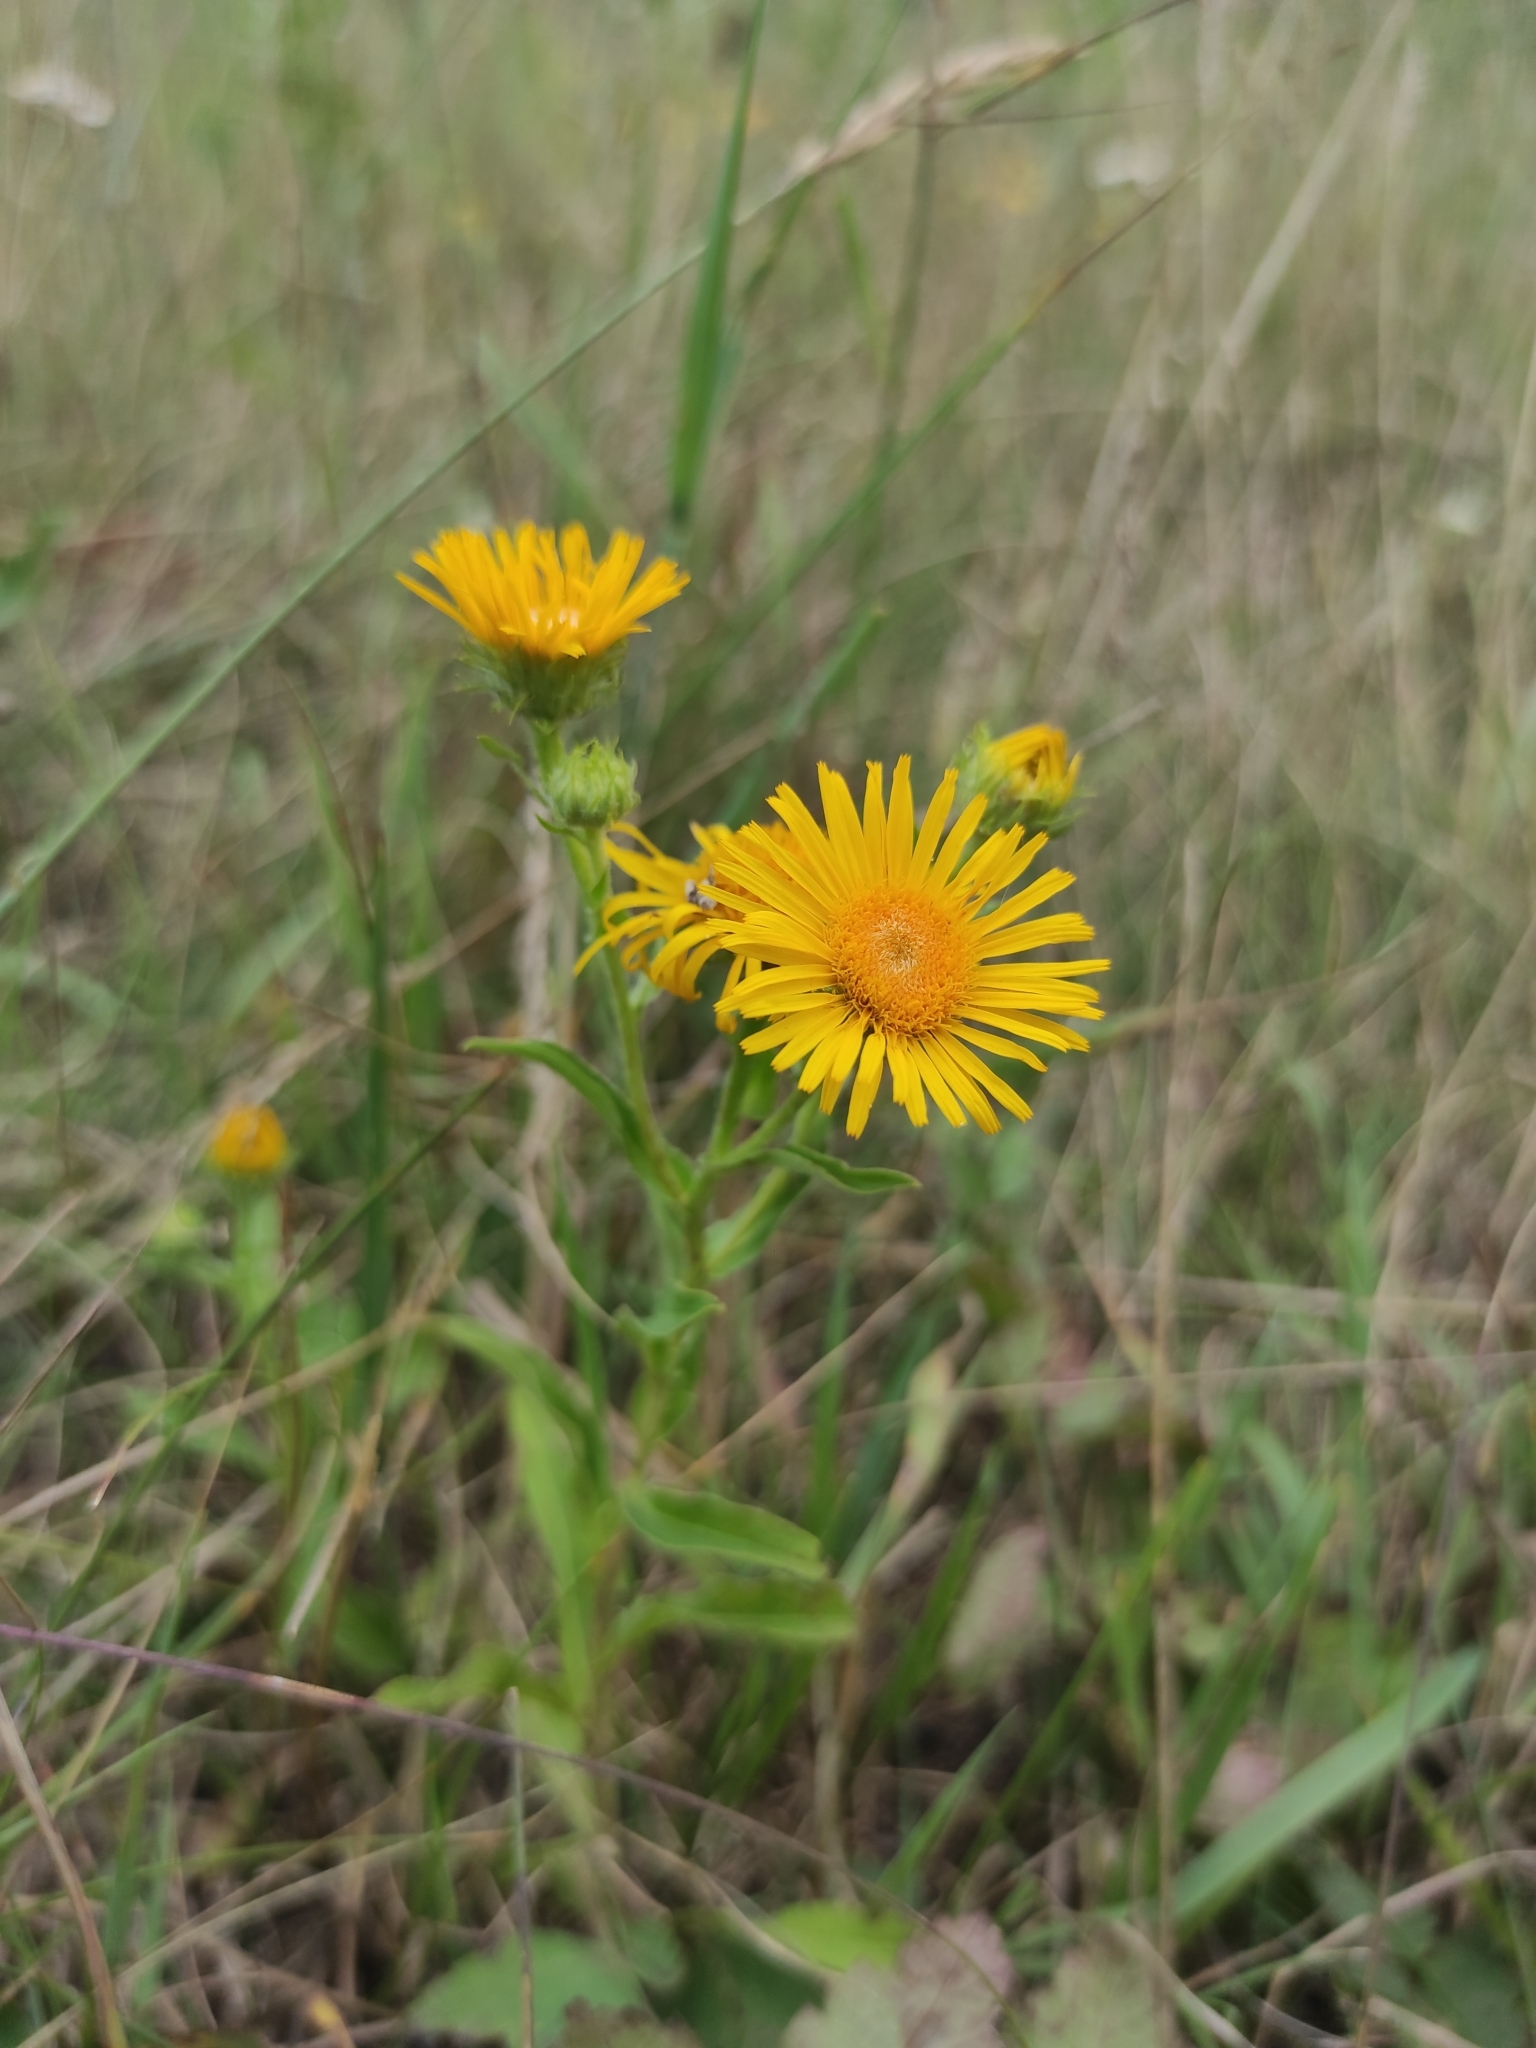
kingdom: Plantae
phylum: Tracheophyta
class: Magnoliopsida
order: Asterales
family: Asteraceae
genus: Pentanema
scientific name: Pentanema britannicum
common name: British elecampane
